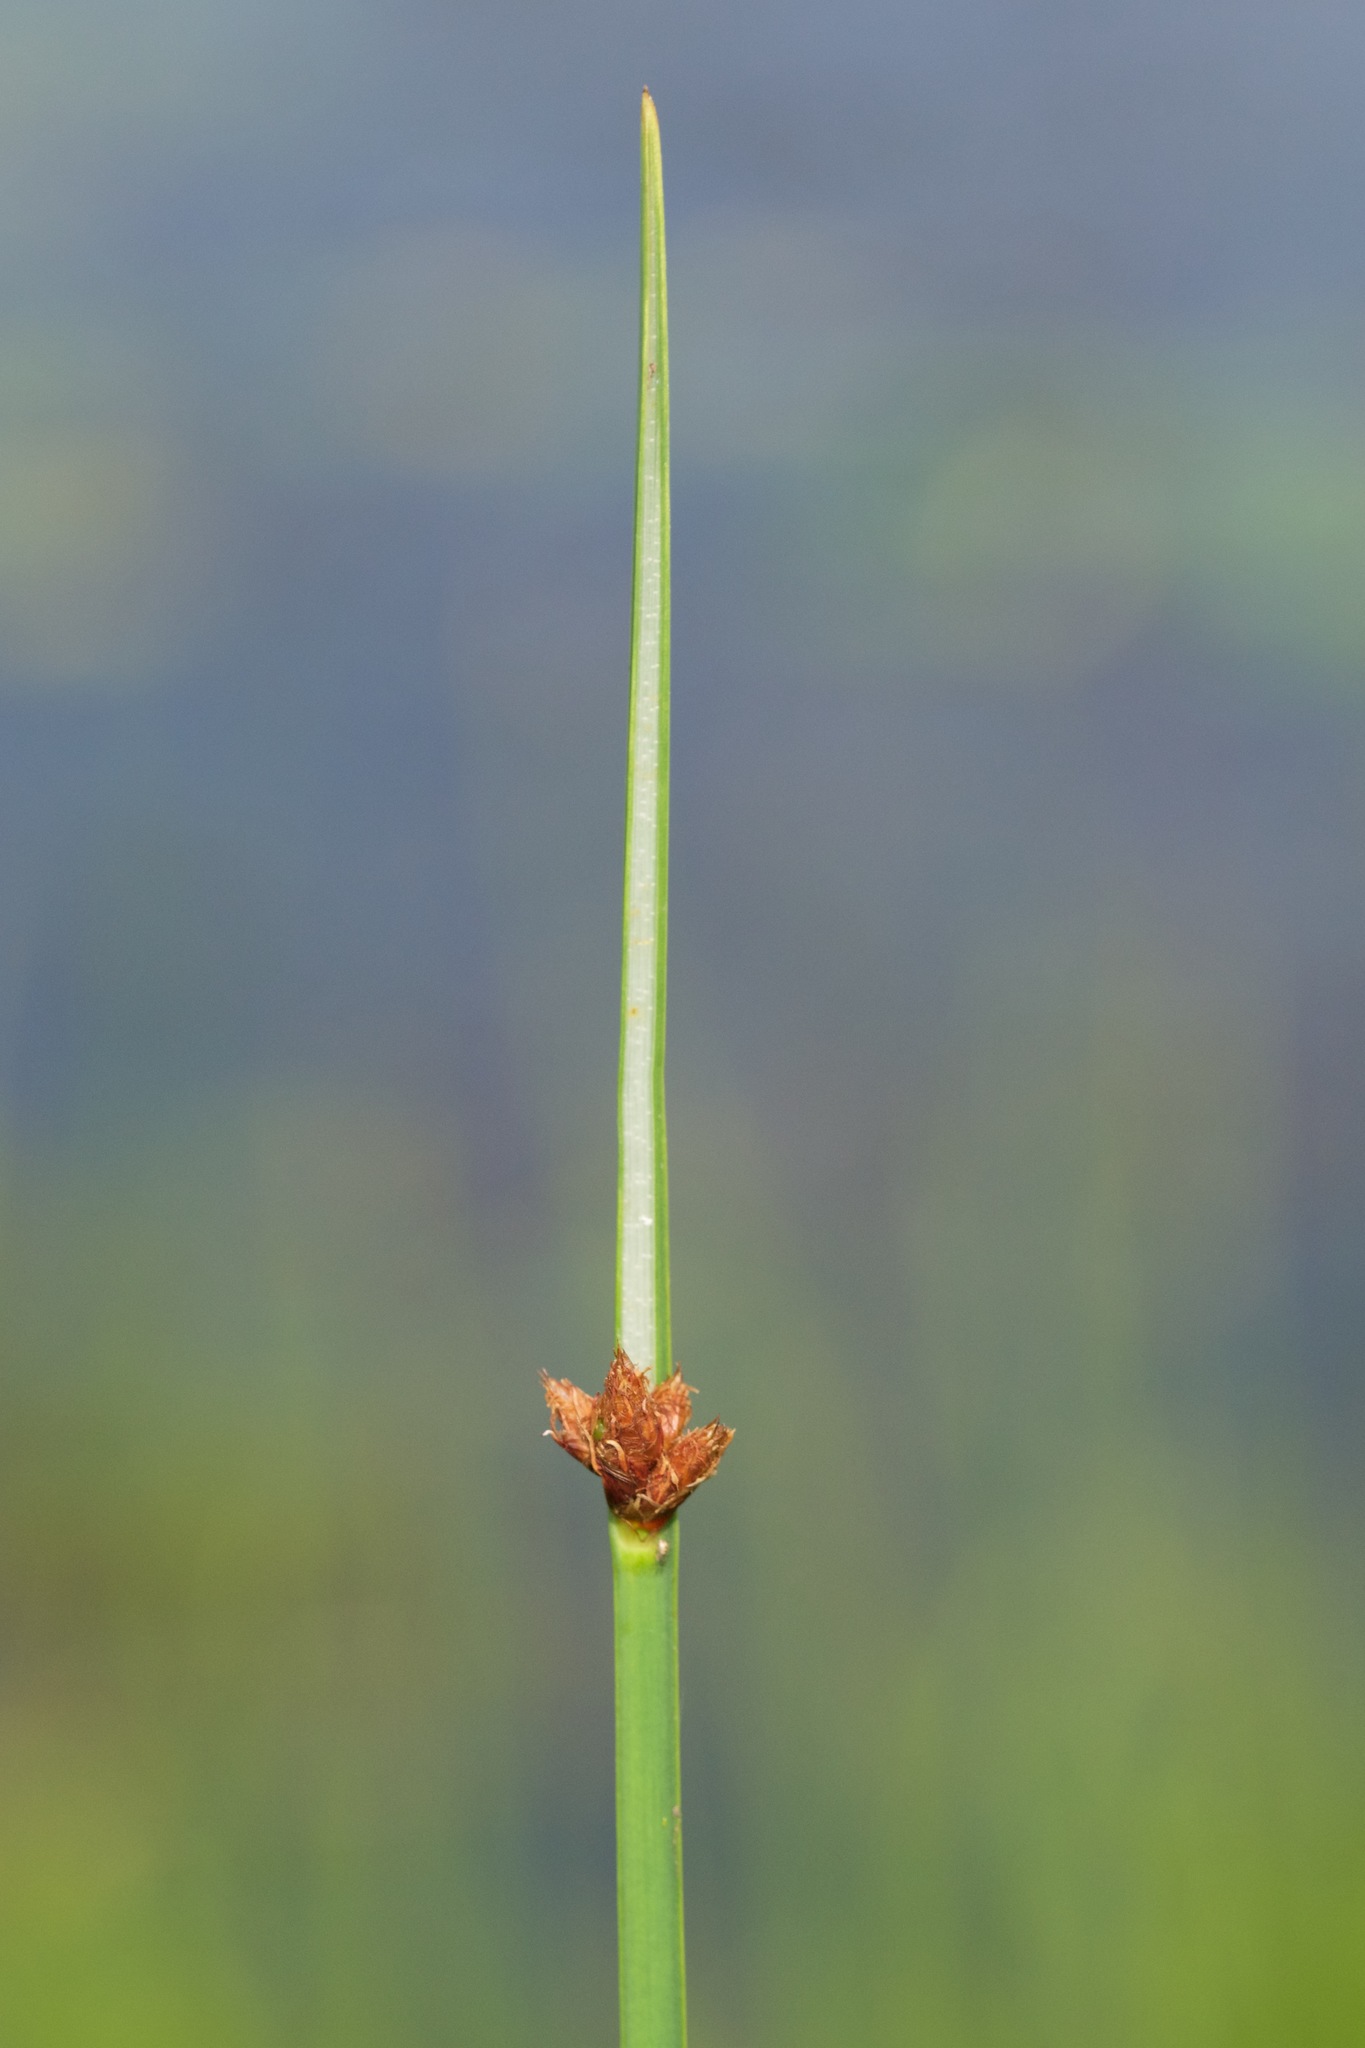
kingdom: Plantae
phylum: Tracheophyta
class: Liliopsida
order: Poales
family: Cyperaceae
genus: Schoenoplectus
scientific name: Schoenoplectus pungens
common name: Sharp club-rush
